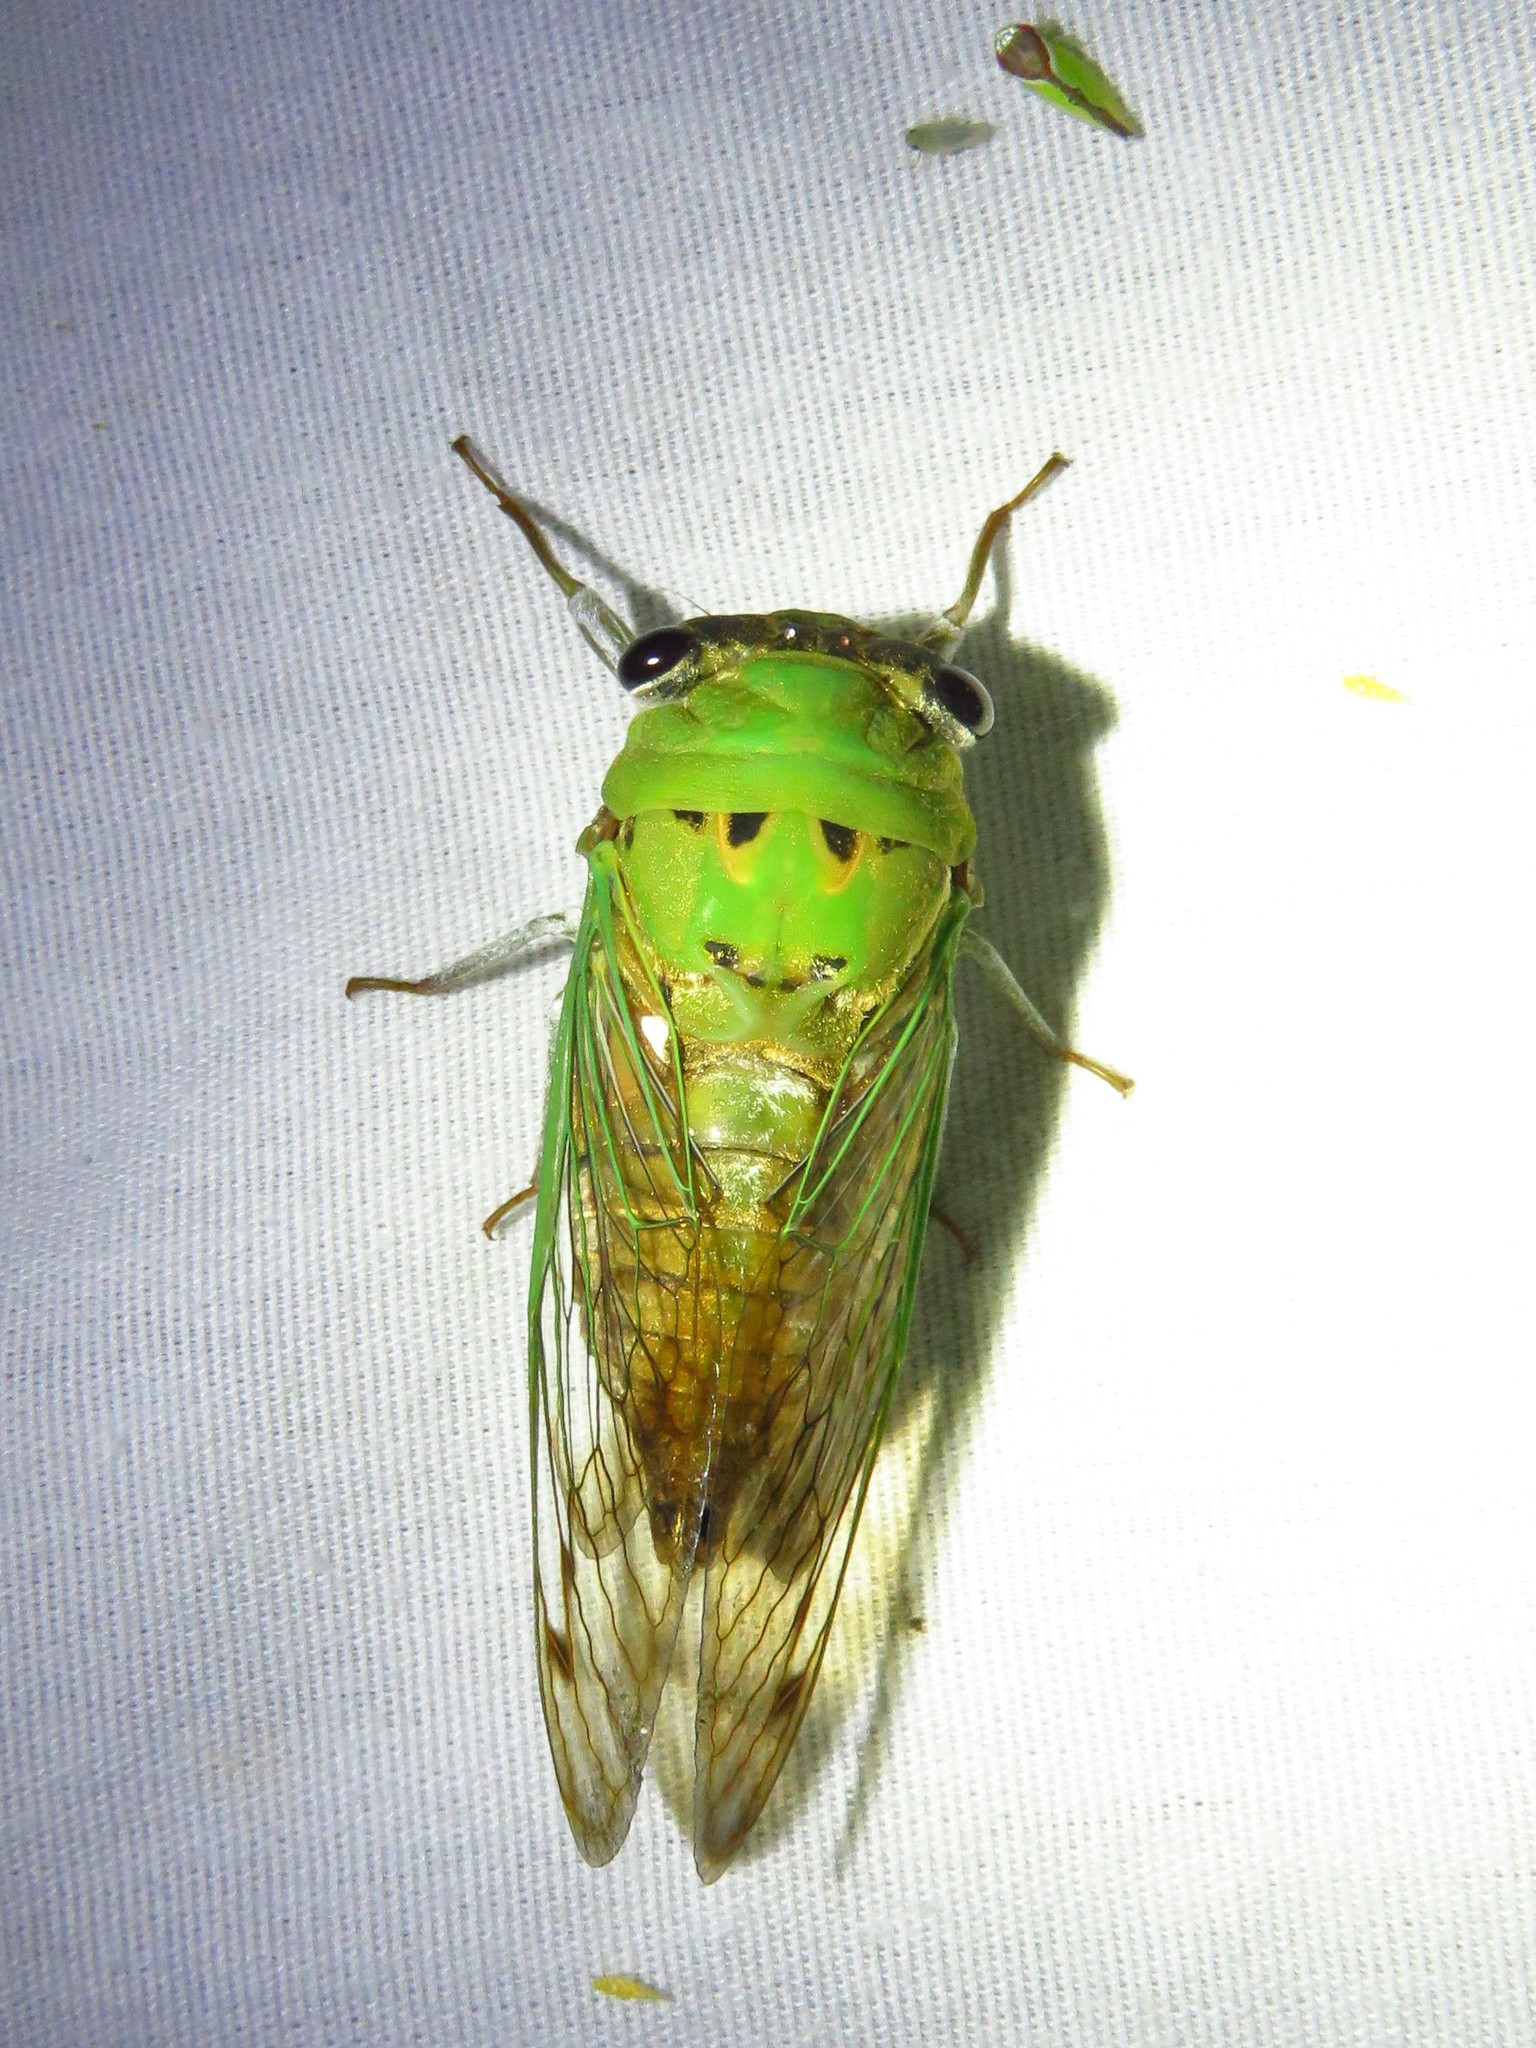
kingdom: Animalia
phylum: Arthropoda
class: Insecta
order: Hemiptera
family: Cicadidae
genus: Neotibicen
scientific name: Neotibicen superbus
